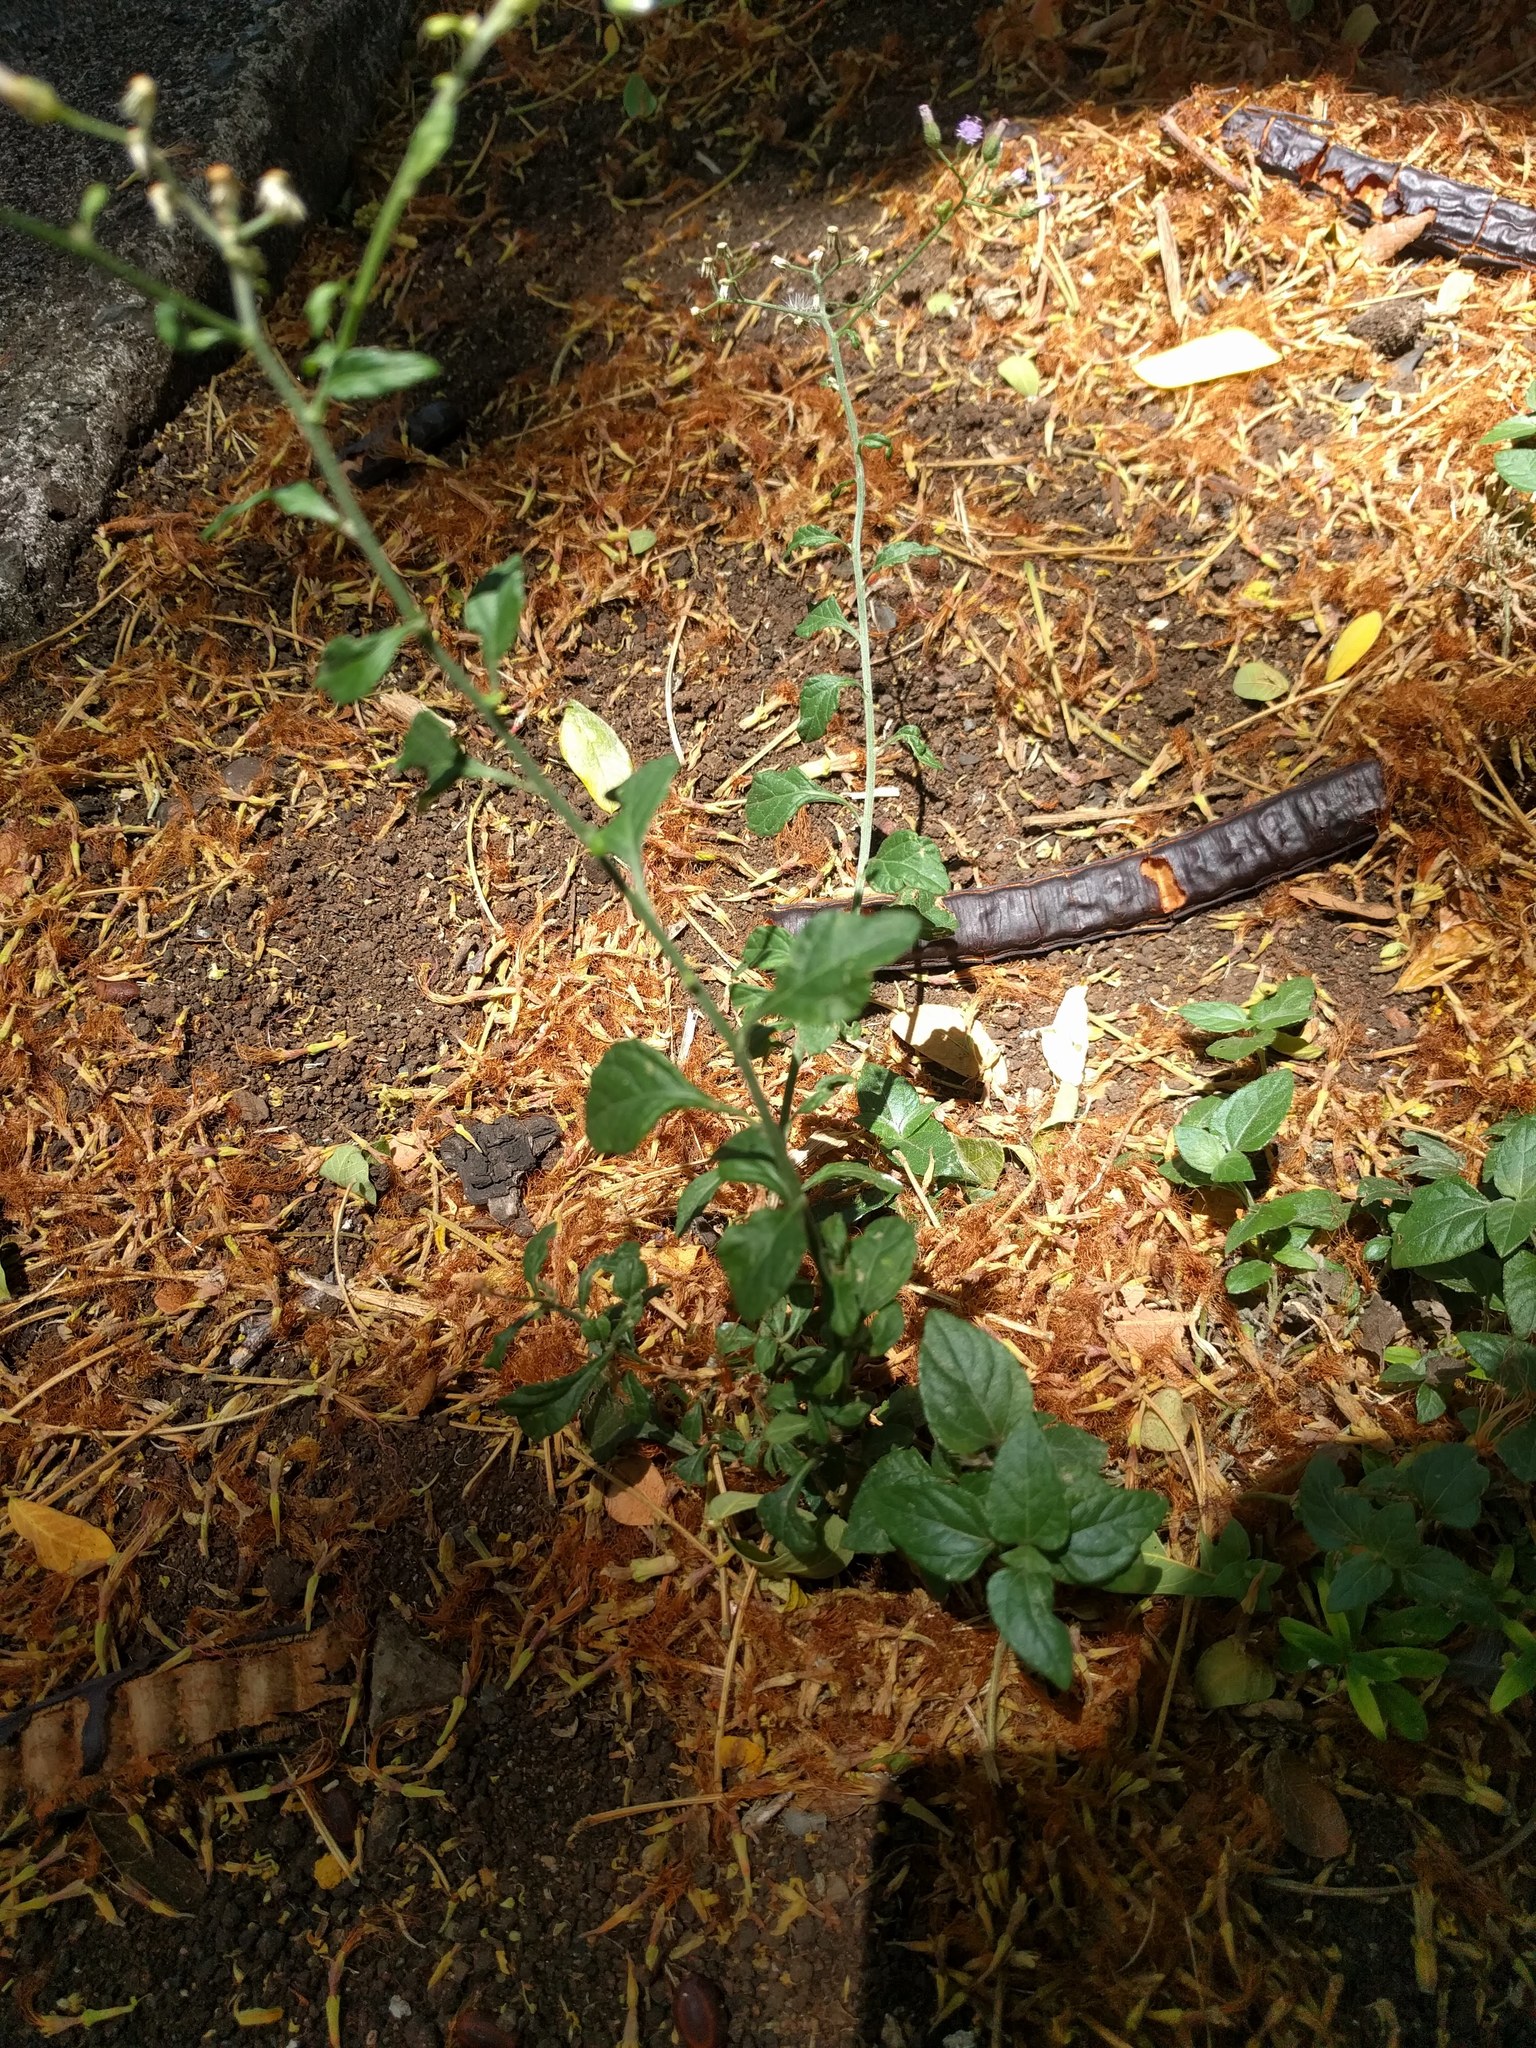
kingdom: Plantae
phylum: Tracheophyta
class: Magnoliopsida
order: Asterales
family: Asteraceae
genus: Cyanthillium
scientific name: Cyanthillium cinereum
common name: Little ironweed
